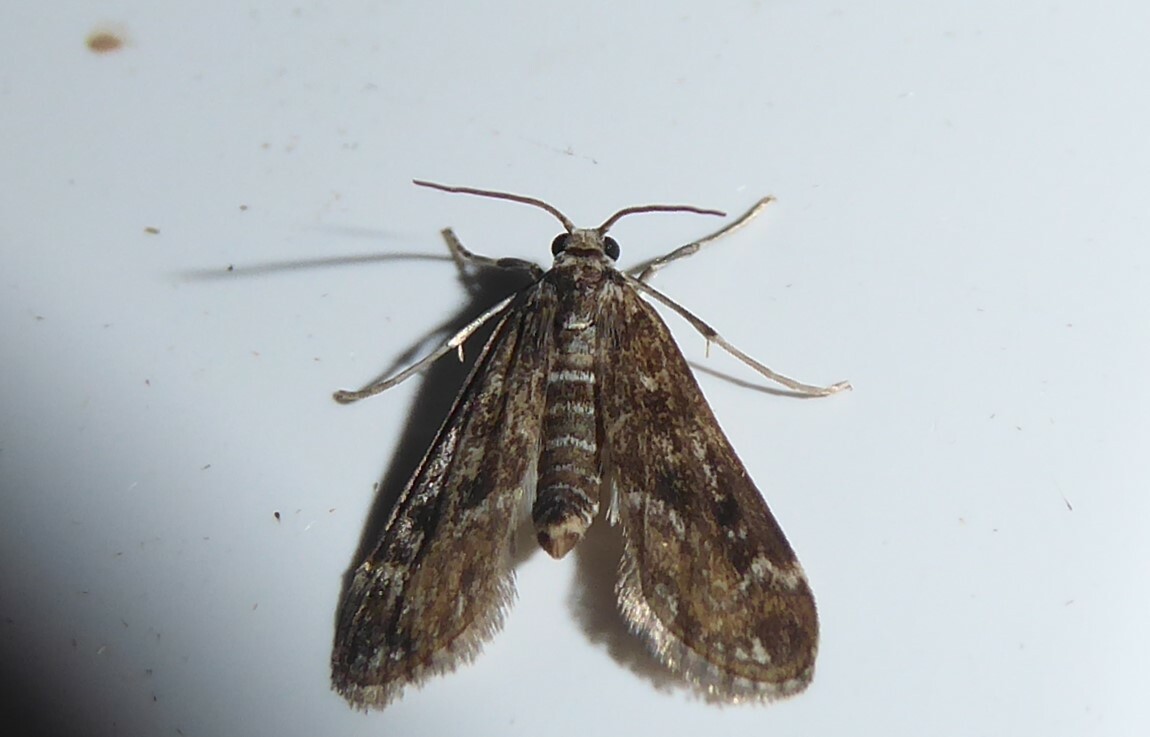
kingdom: Animalia
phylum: Arthropoda
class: Insecta
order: Lepidoptera
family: Crambidae
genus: Hygraula
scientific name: Hygraula nitens
